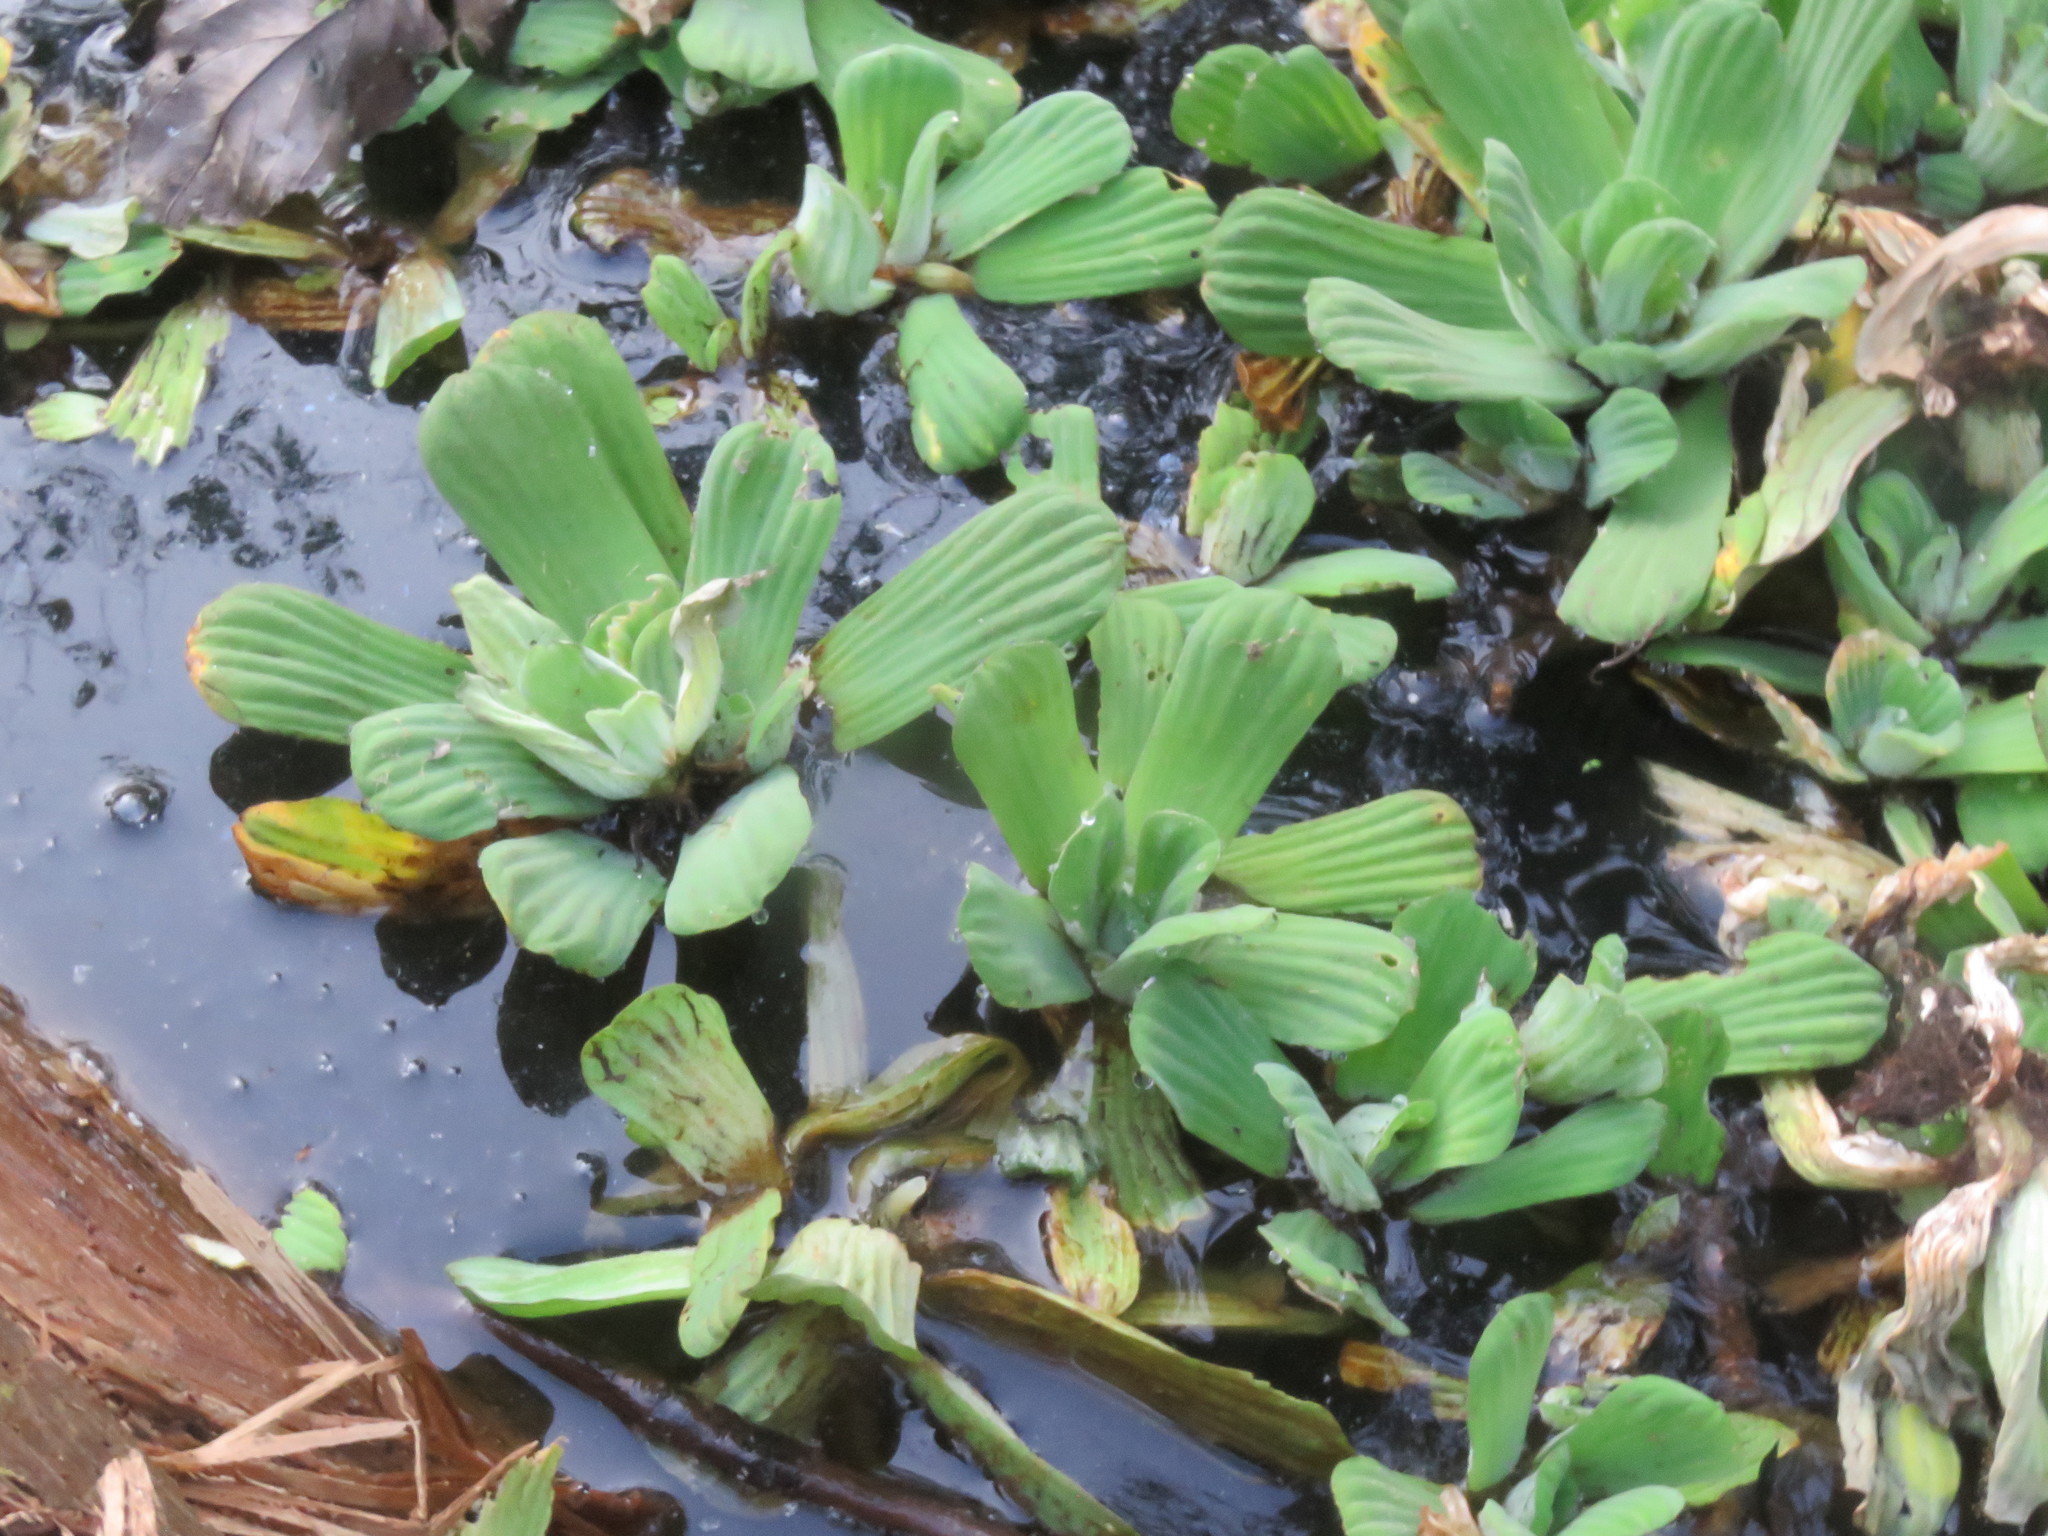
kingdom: Plantae
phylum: Tracheophyta
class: Liliopsida
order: Alismatales
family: Araceae
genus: Pistia
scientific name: Pistia stratiotes
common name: Water lettuce
